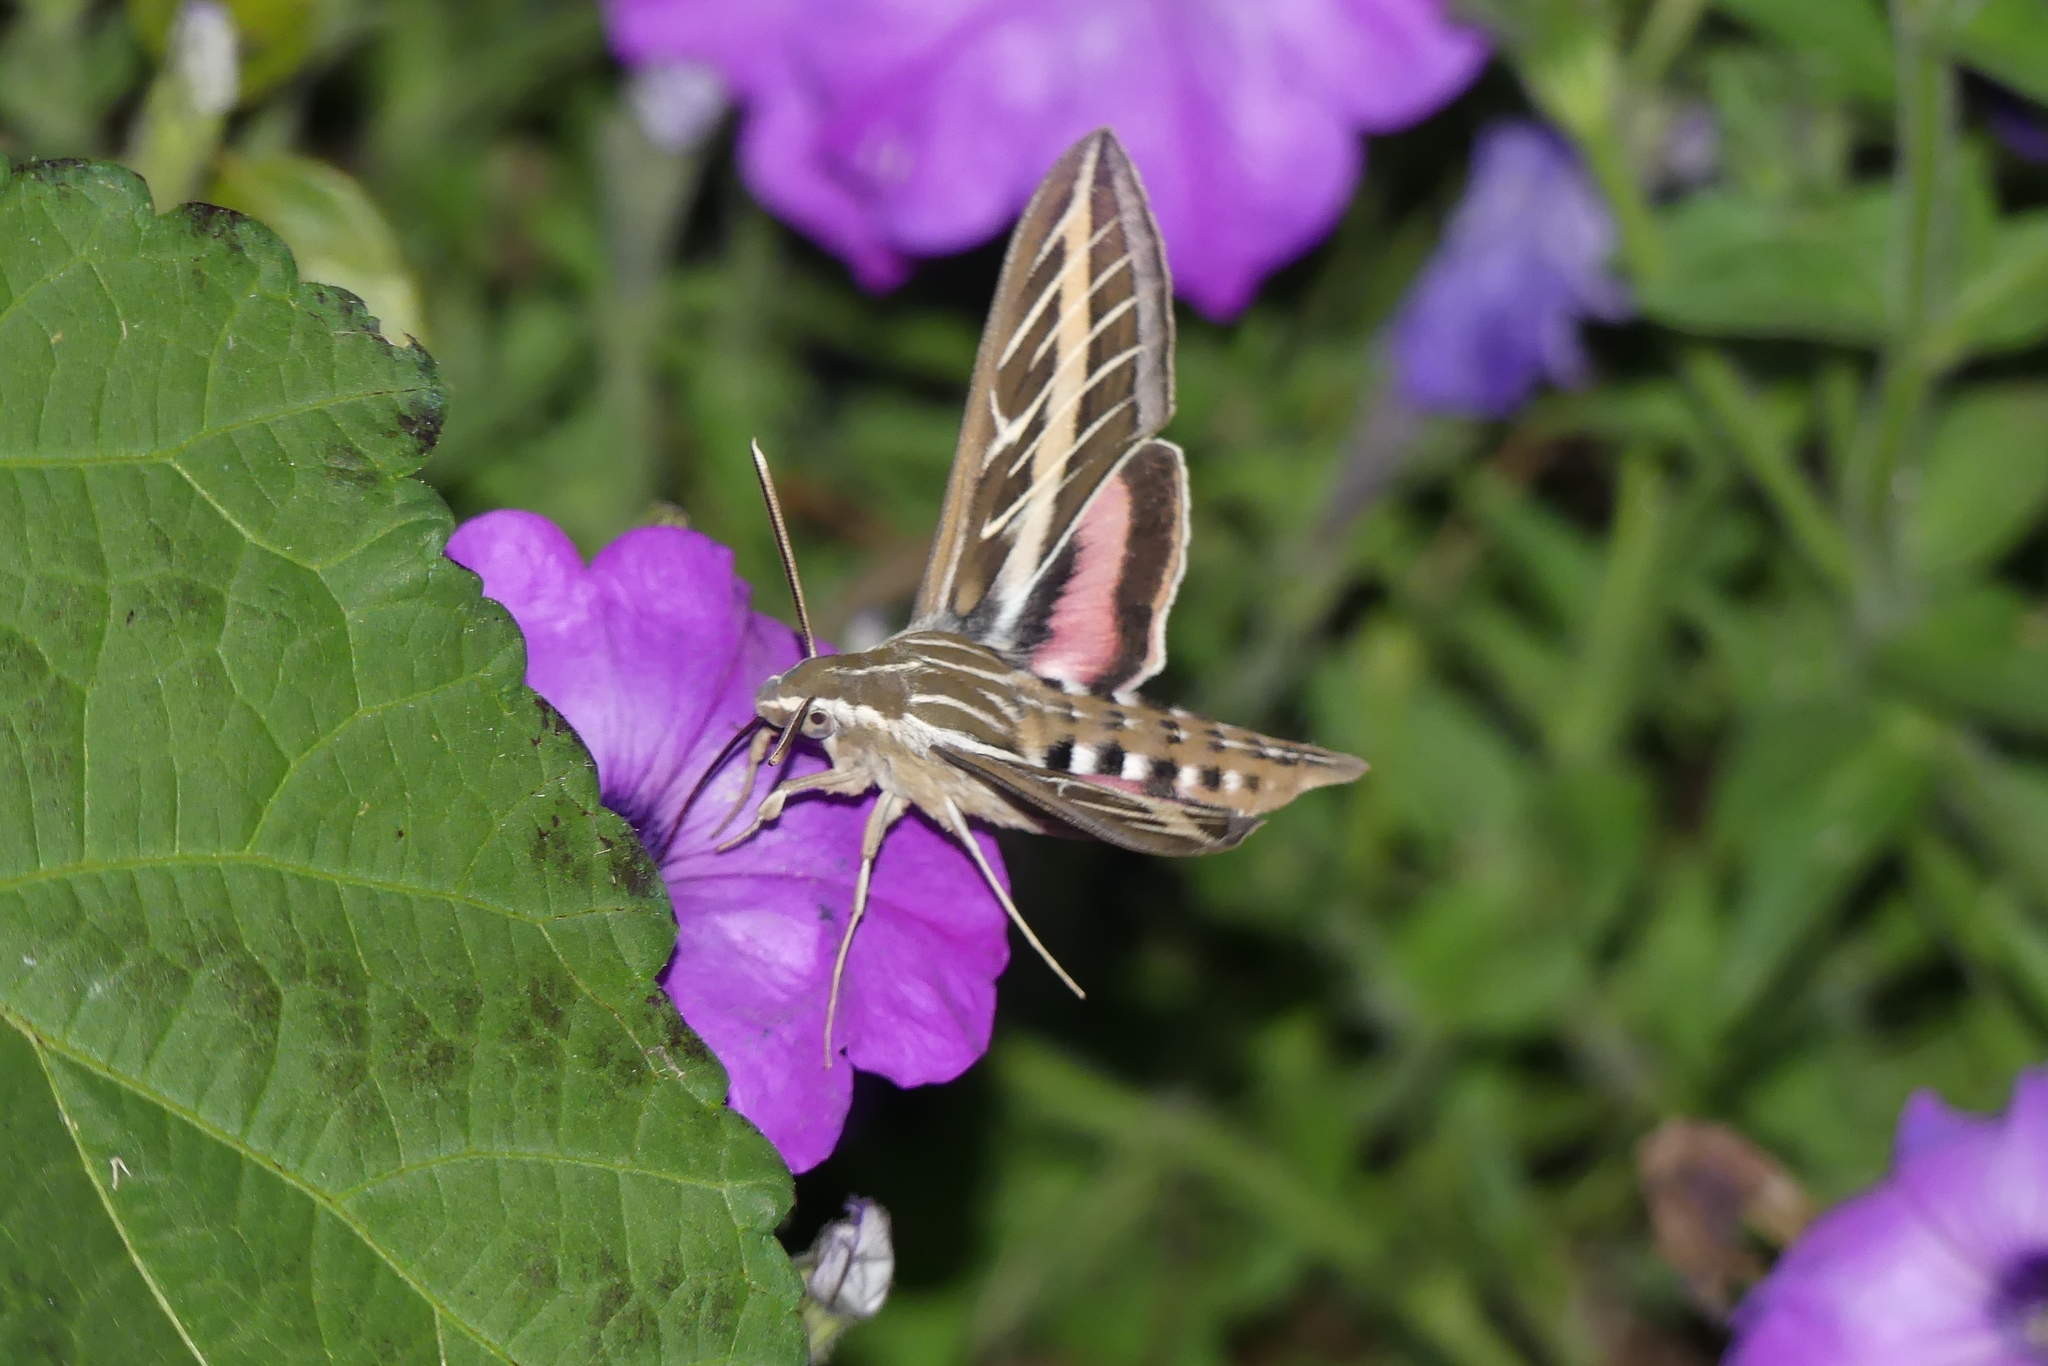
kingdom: Animalia
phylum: Arthropoda
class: Insecta
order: Lepidoptera
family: Sphingidae
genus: Hyles
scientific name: Hyles lineata
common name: White-lined sphinx
